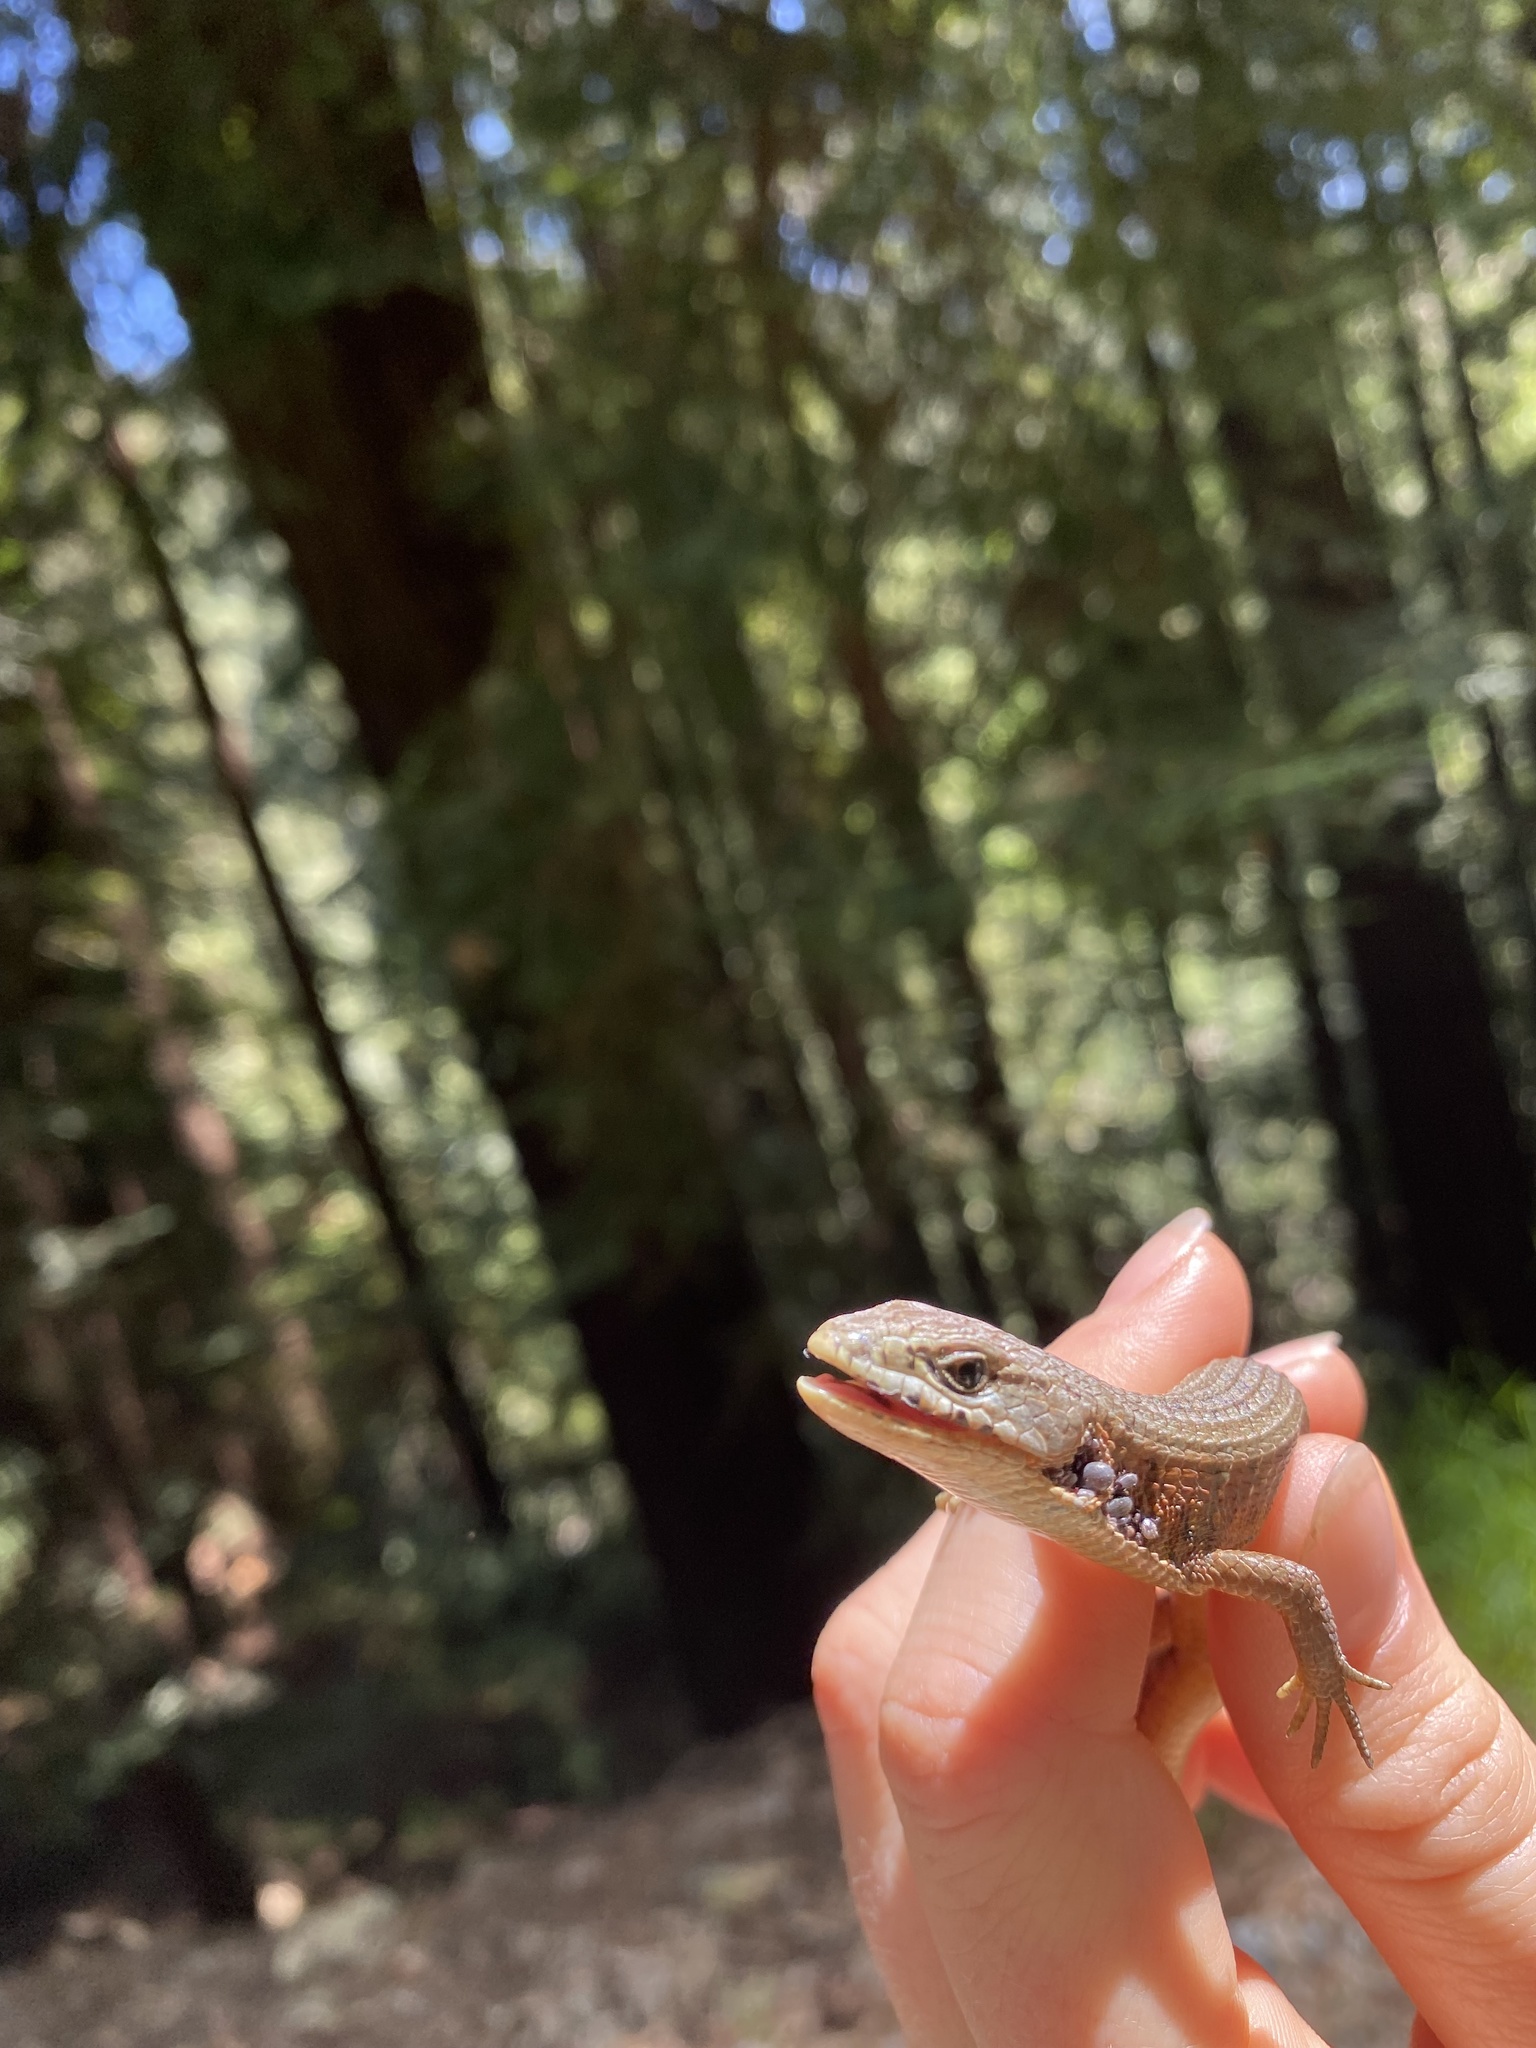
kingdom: Animalia
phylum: Chordata
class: Squamata
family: Anguidae
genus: Elgaria
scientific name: Elgaria coerulea
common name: Northern alligator lizard
